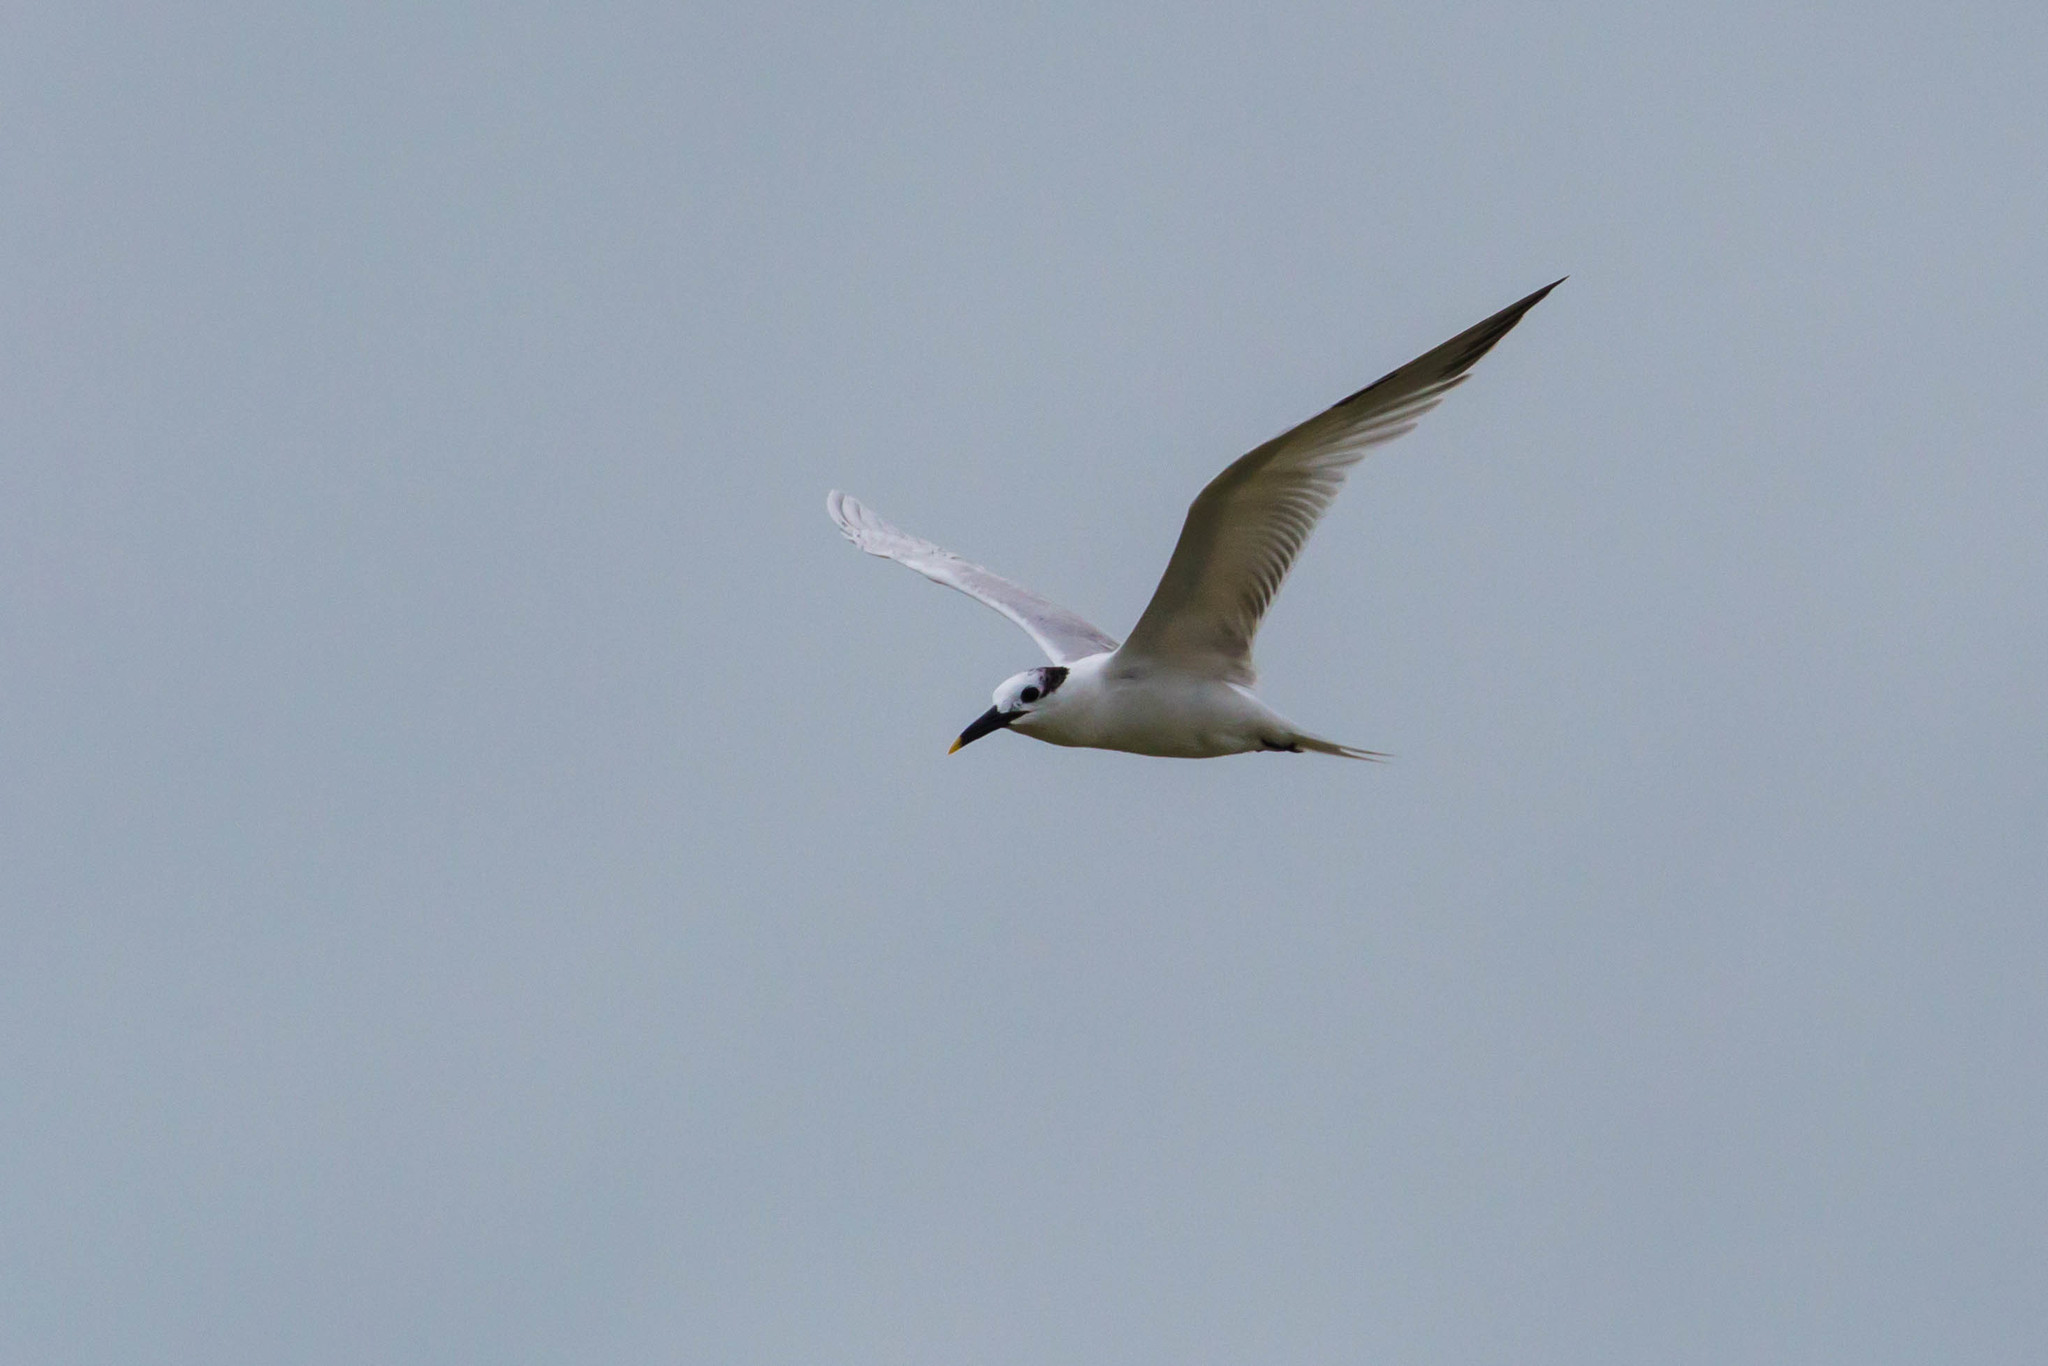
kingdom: Animalia
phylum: Chordata
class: Aves
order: Charadriiformes
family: Laridae
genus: Thalasseus
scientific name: Thalasseus sandvicensis
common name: Sandwich tern
